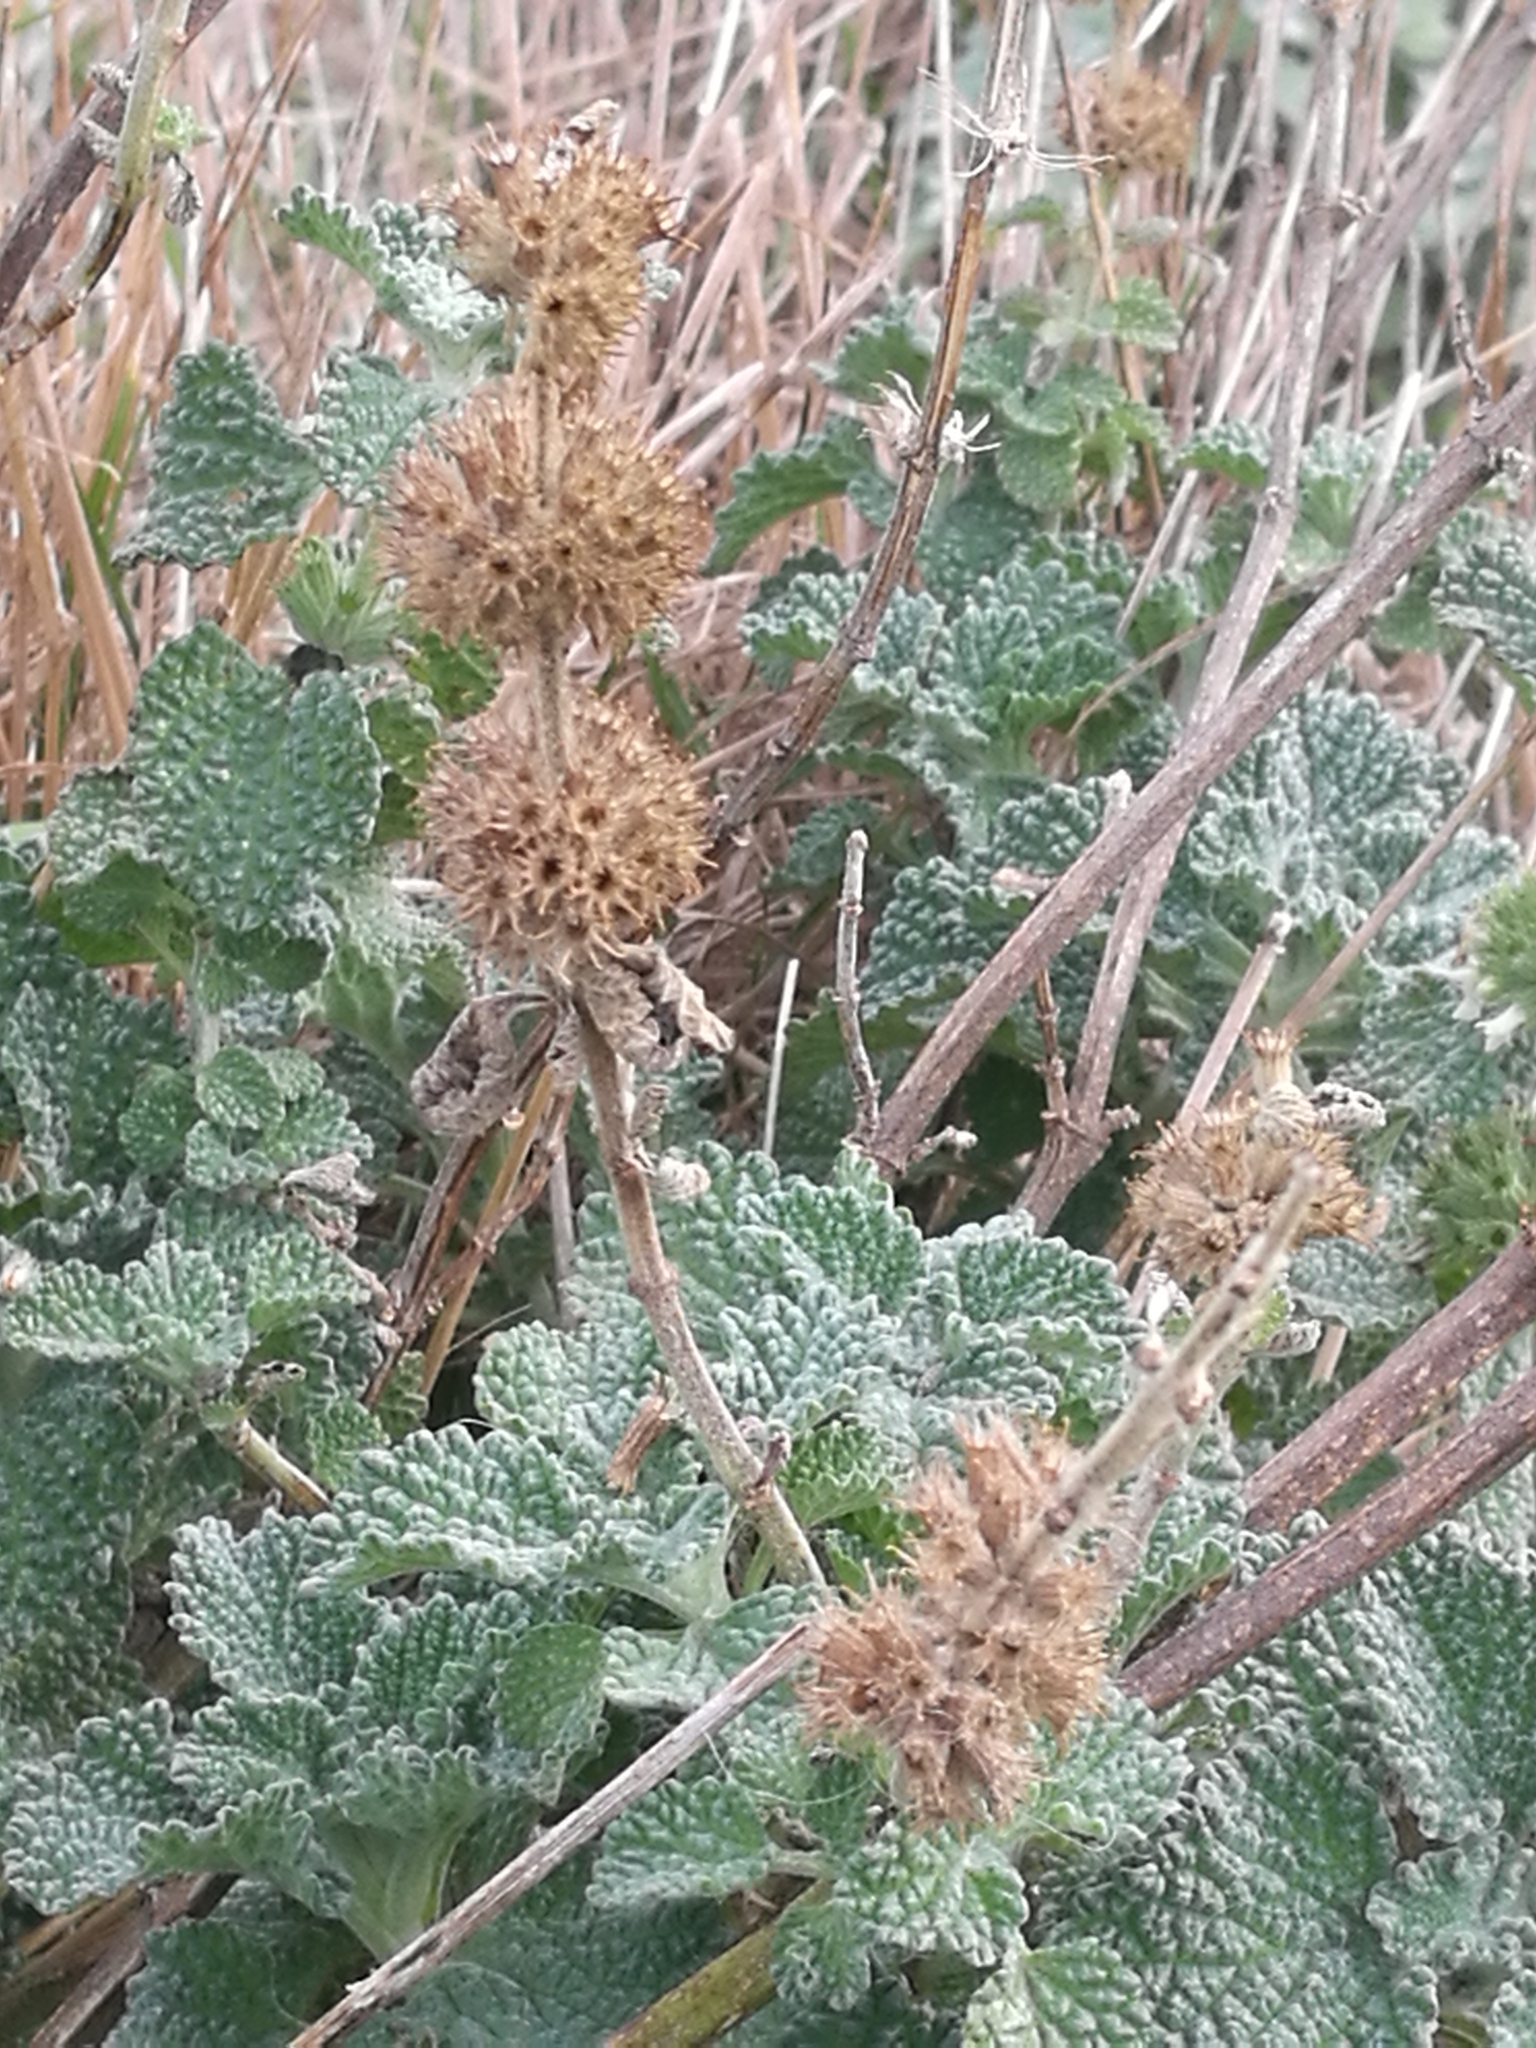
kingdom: Plantae
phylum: Tracheophyta
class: Magnoliopsida
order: Lamiales
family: Lamiaceae
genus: Marrubium
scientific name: Marrubium vulgare
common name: Horehound
